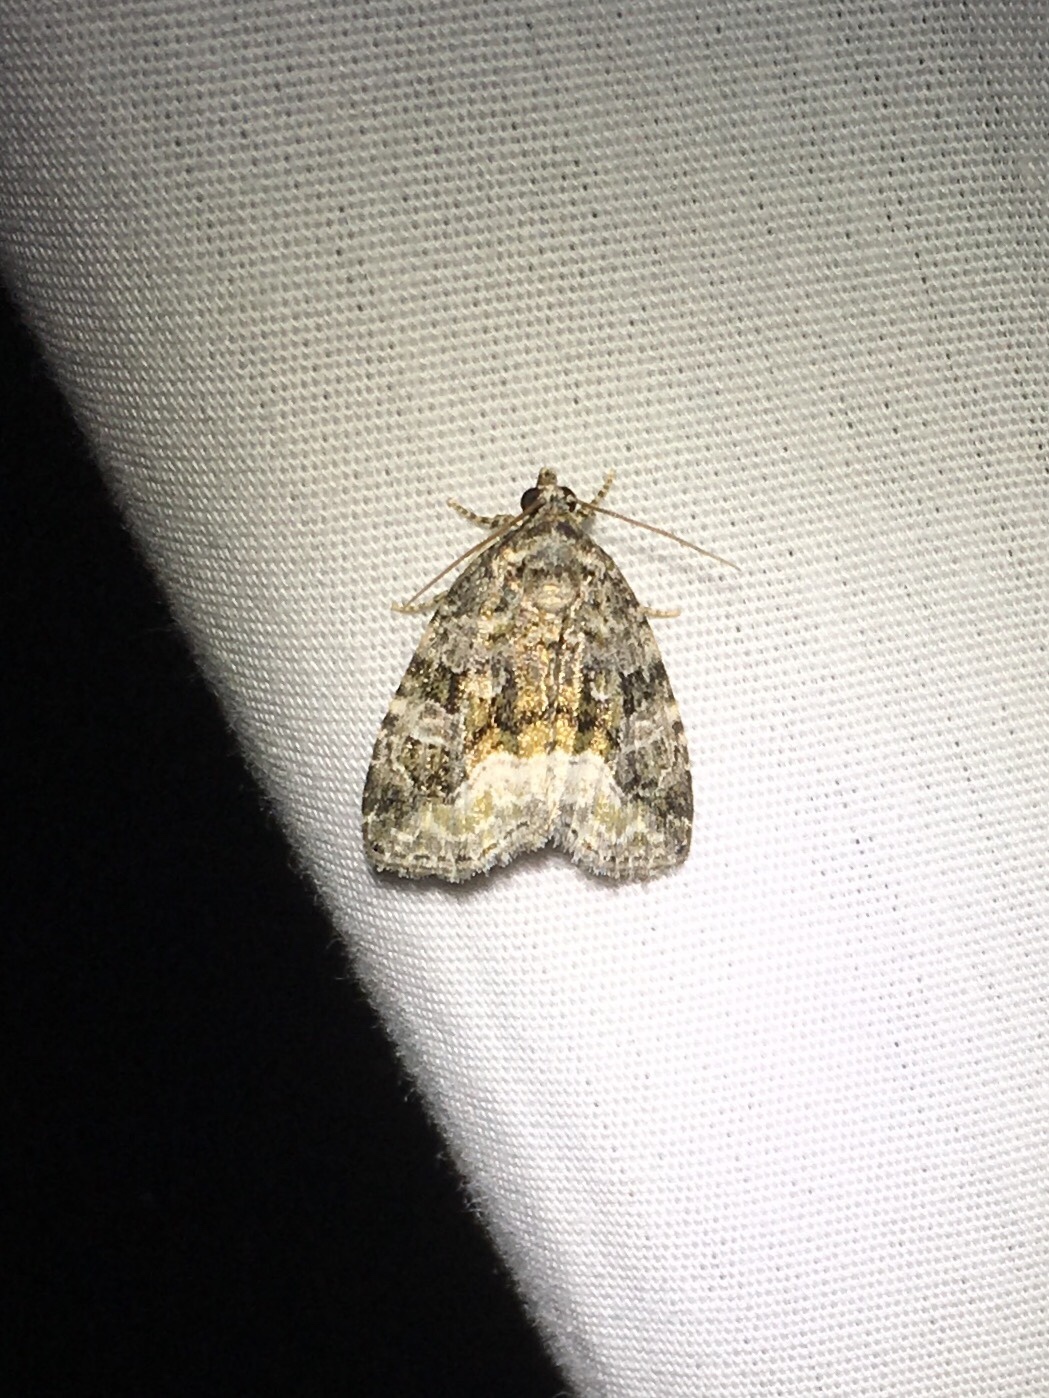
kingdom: Animalia
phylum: Arthropoda
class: Insecta
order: Lepidoptera
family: Noctuidae
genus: Protodeltote
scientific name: Protodeltote muscosula
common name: Large mossy glyph
